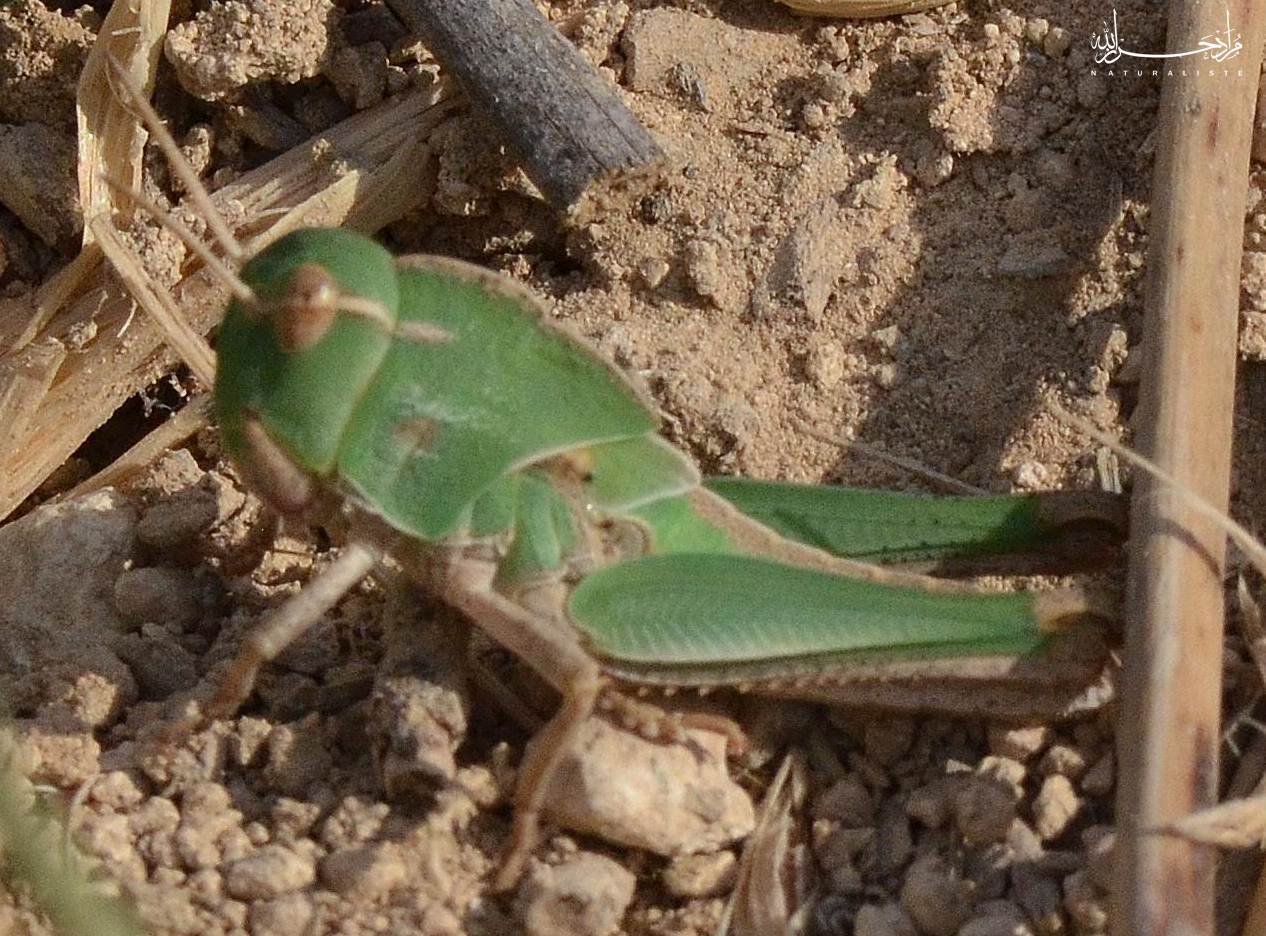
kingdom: Animalia
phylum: Arthropoda
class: Insecta
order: Orthoptera
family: Acrididae
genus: Locusta
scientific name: Locusta migratoria
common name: Migratory locust
